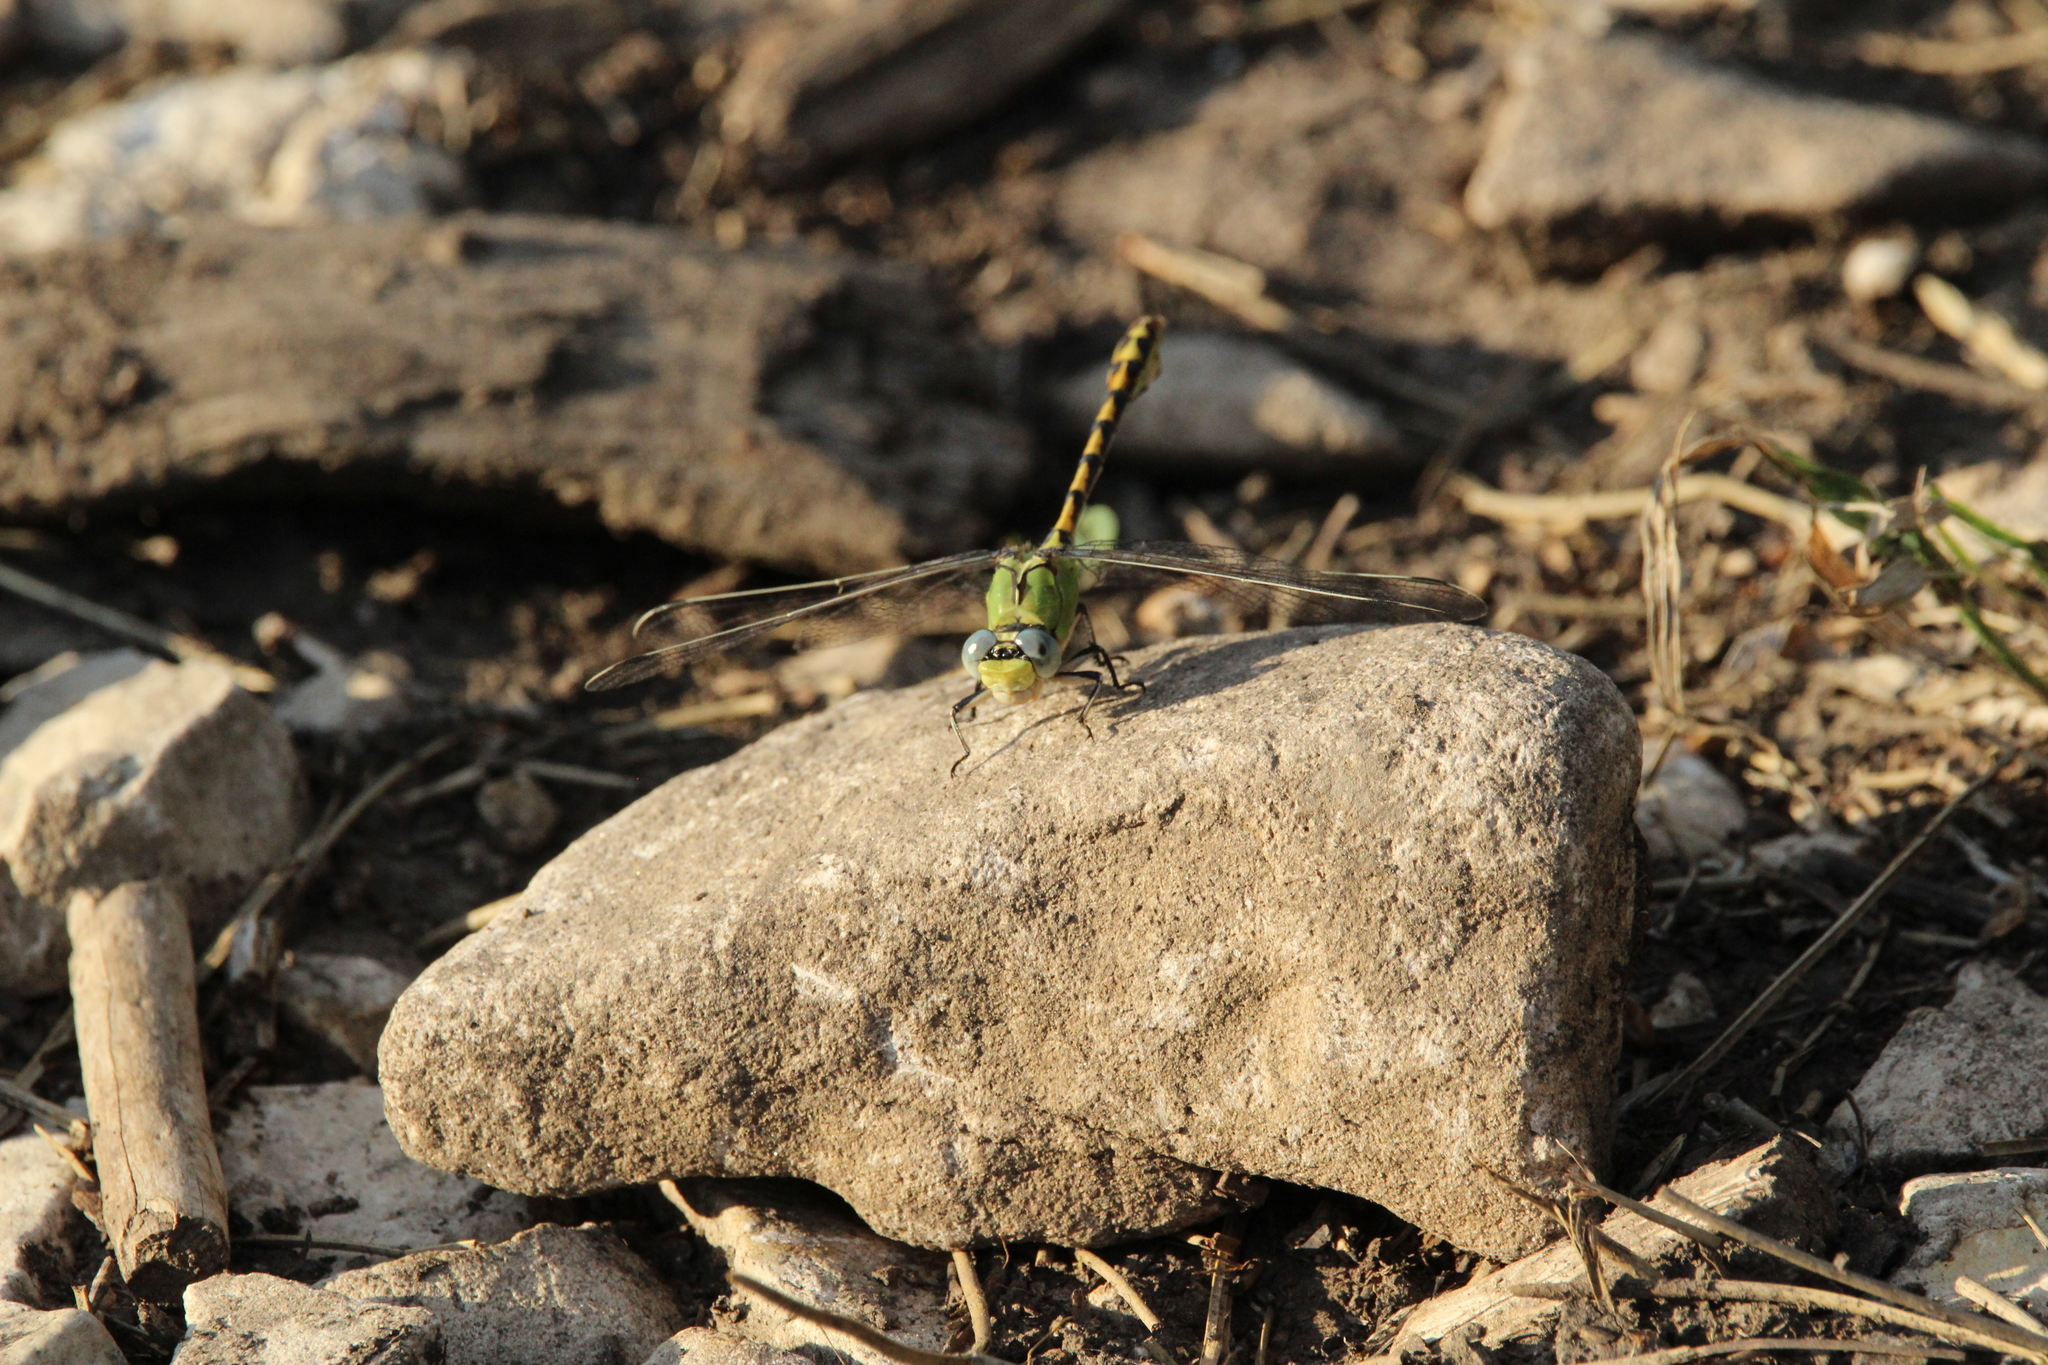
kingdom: Animalia
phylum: Arthropoda
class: Insecta
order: Odonata
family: Gomphidae
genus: Ophiogomphus
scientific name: Ophiogomphus severus
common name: Pale snaketail
